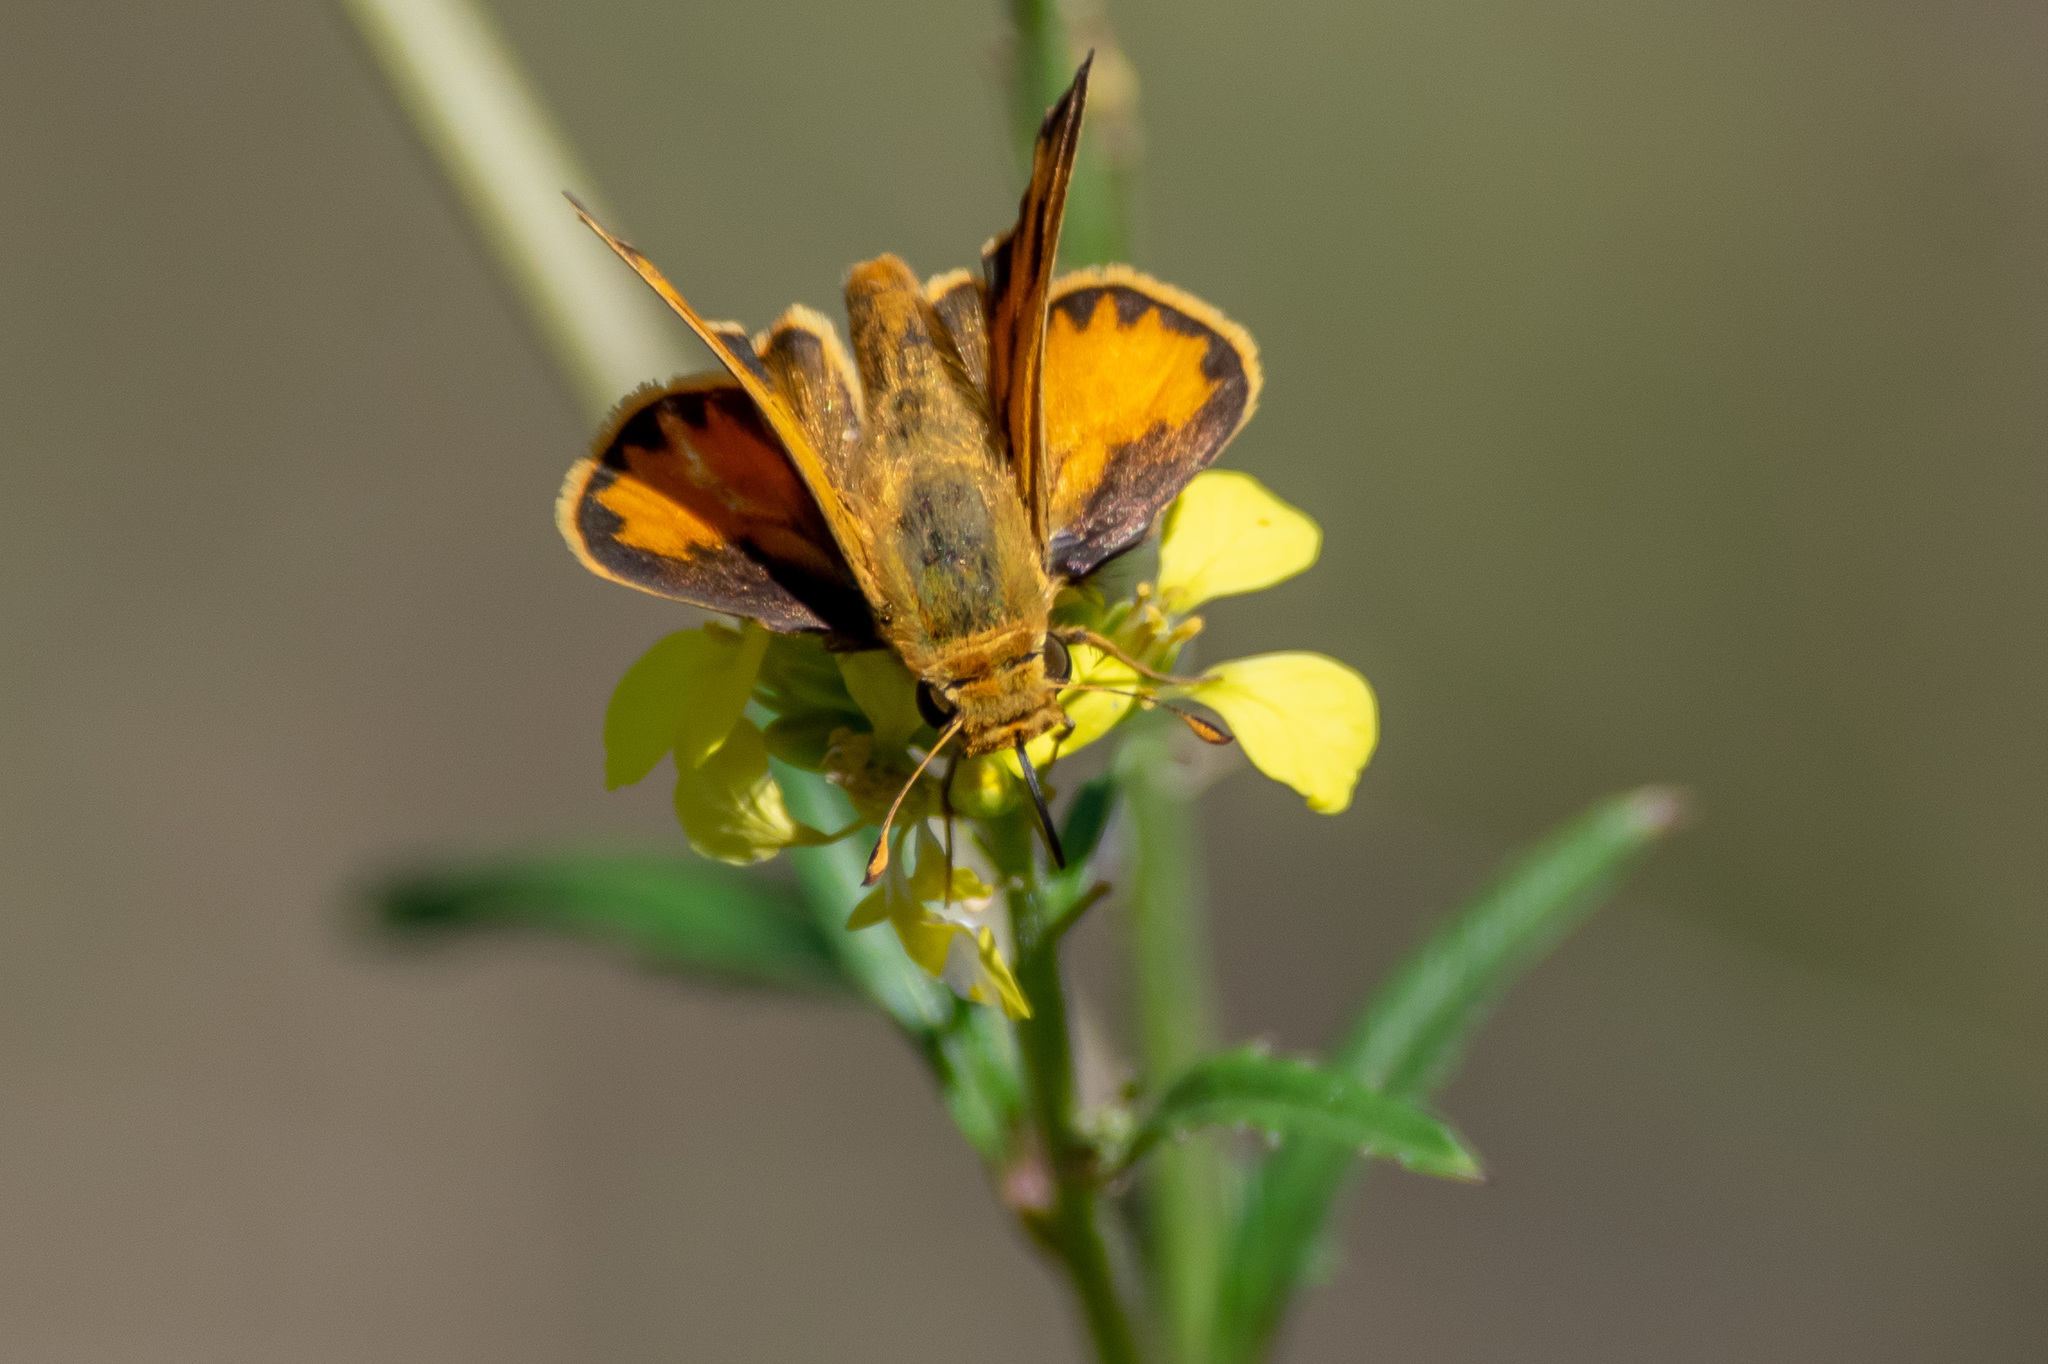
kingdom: Animalia
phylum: Arthropoda
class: Insecta
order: Lepidoptera
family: Hesperiidae
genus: Hylephila
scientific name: Hylephila phyleus
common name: Fiery skipper
